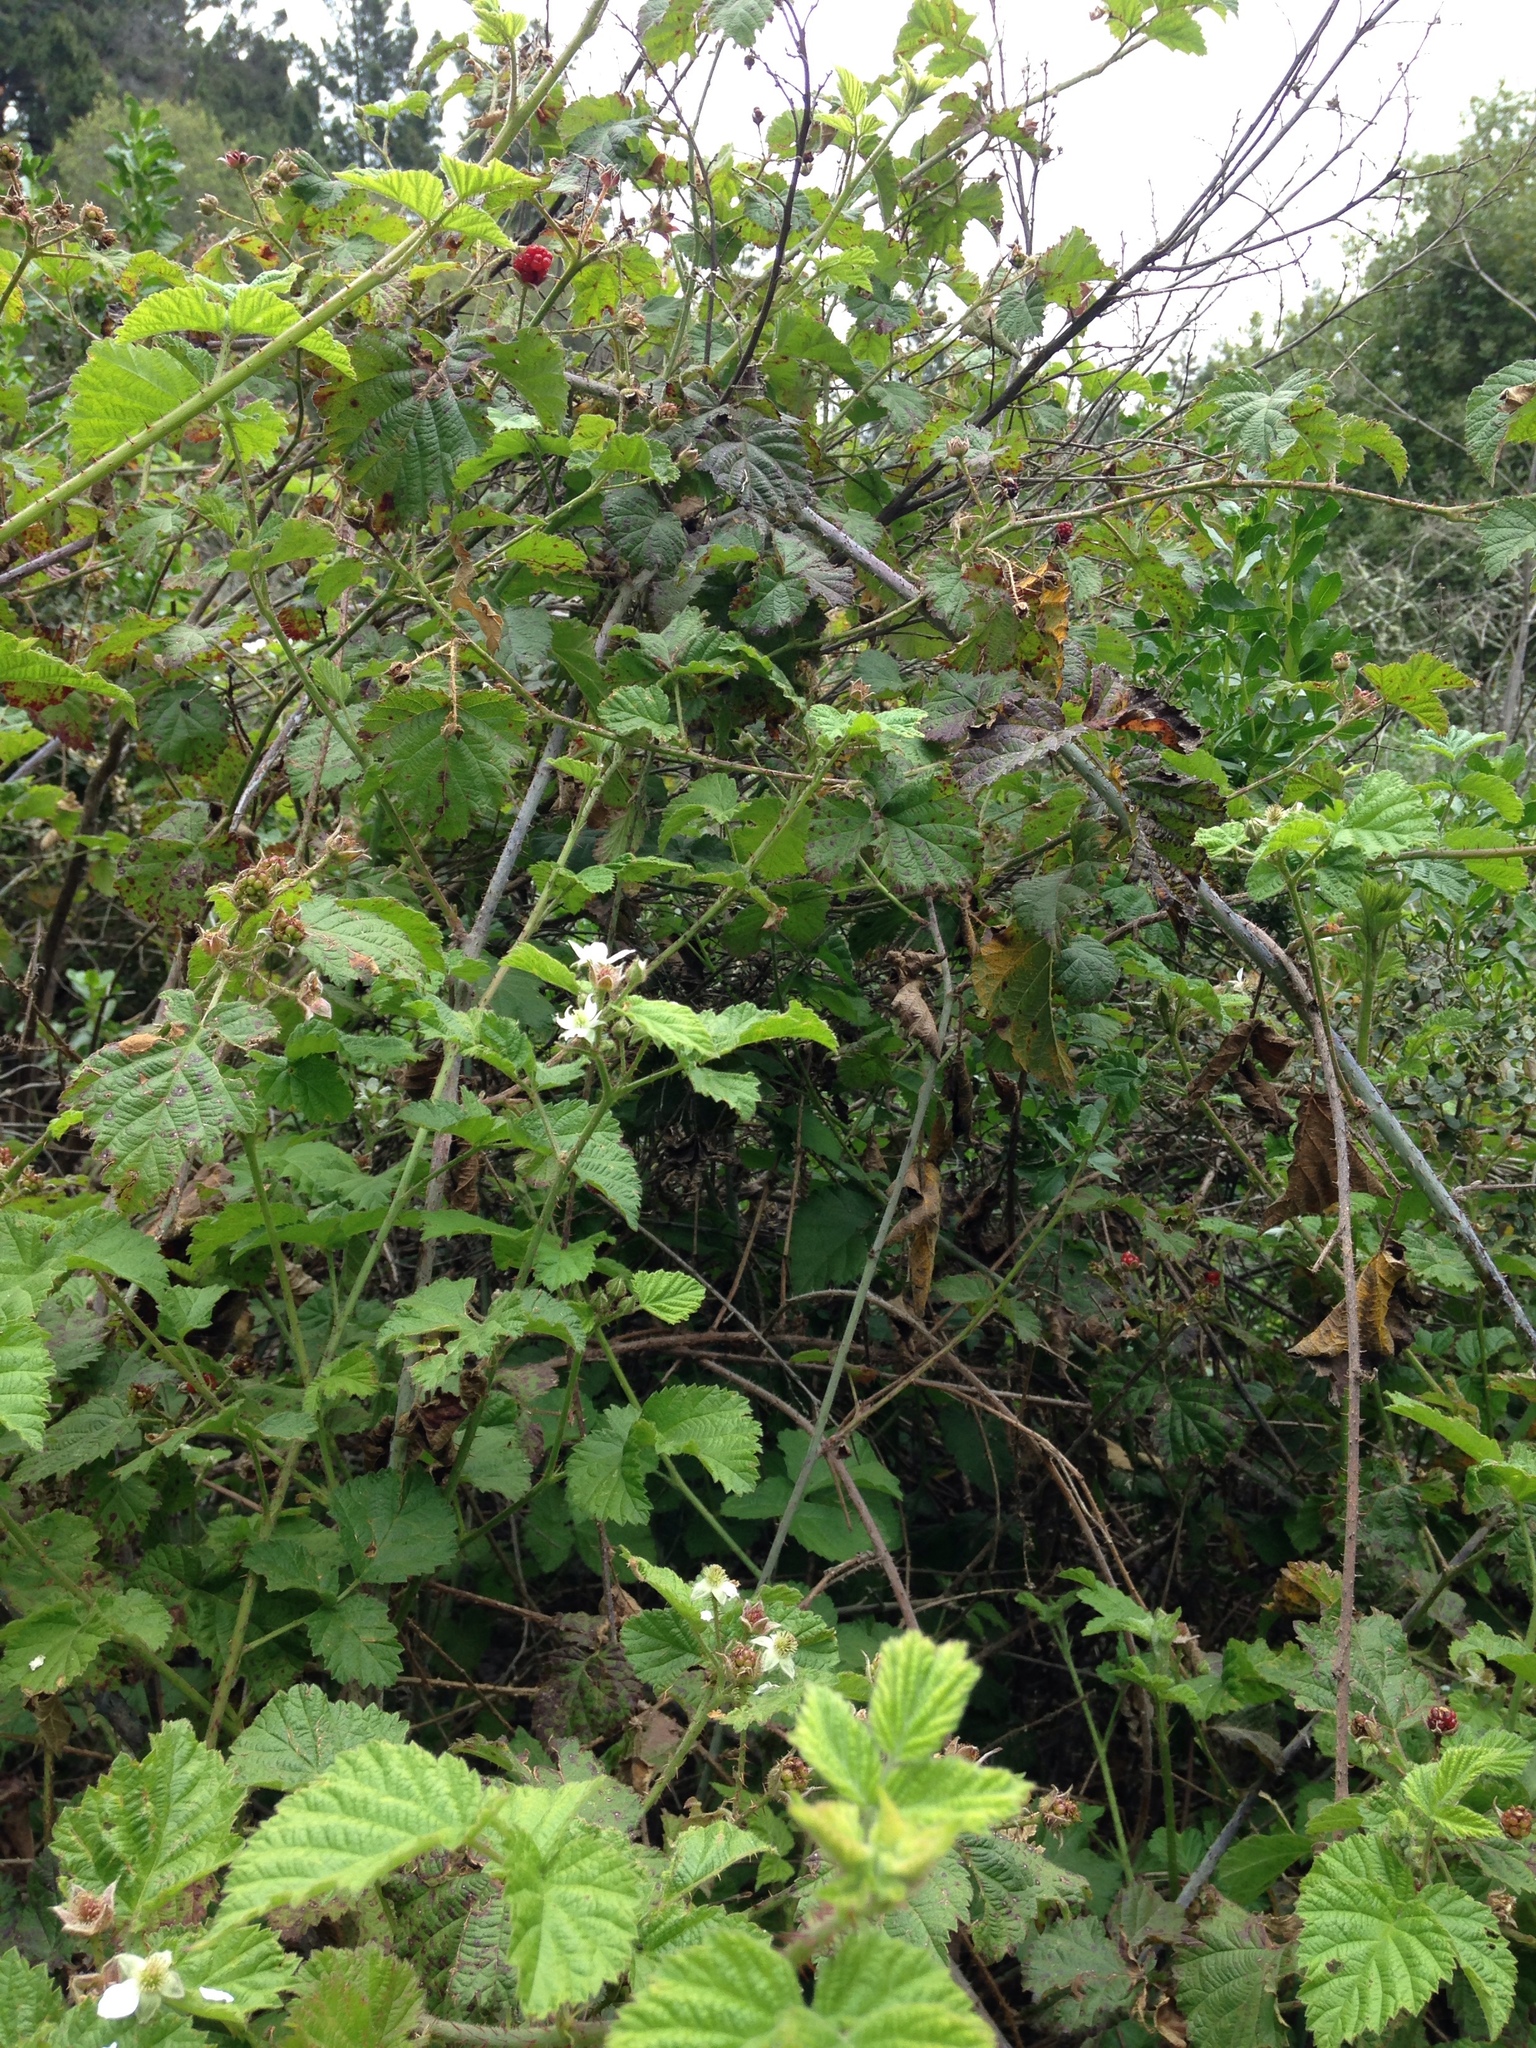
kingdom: Plantae
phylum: Tracheophyta
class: Magnoliopsida
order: Rosales
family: Rosaceae
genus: Rubus
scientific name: Rubus ursinus
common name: Pacific blackberry
